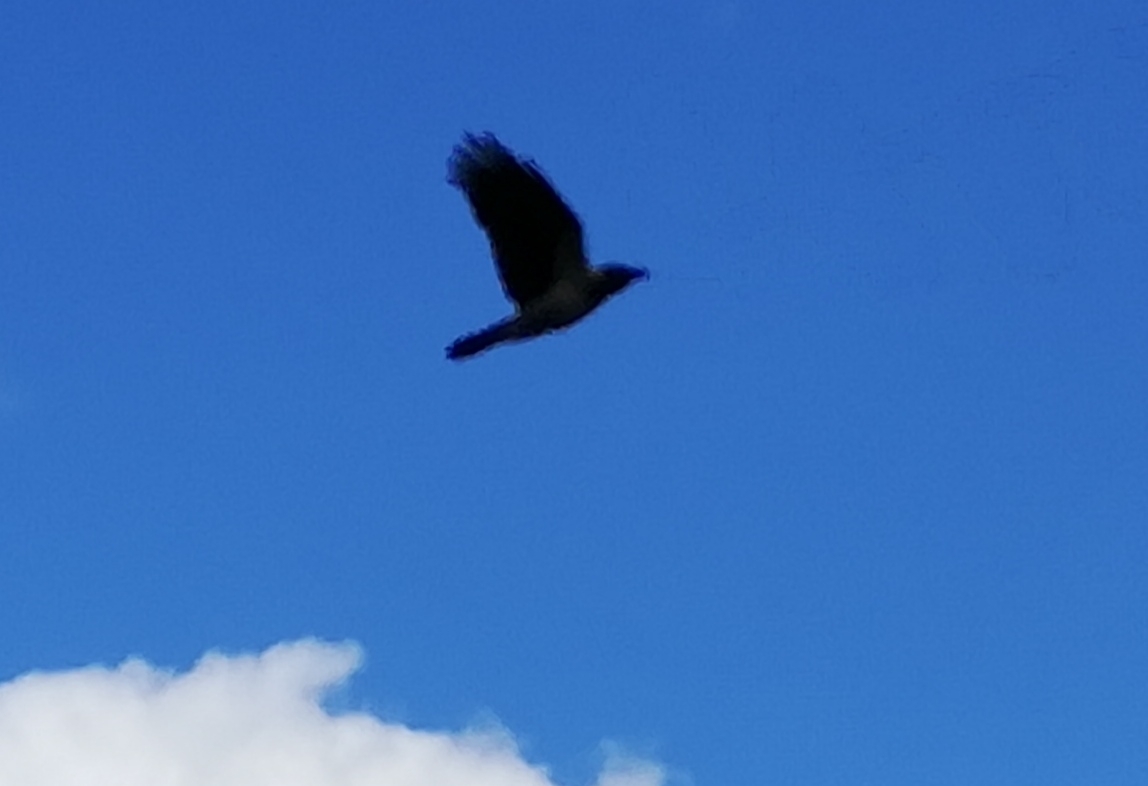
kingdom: Animalia
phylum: Chordata
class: Aves
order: Passeriformes
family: Corvidae
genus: Corvus
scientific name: Corvus cornix
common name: Hooded crow
